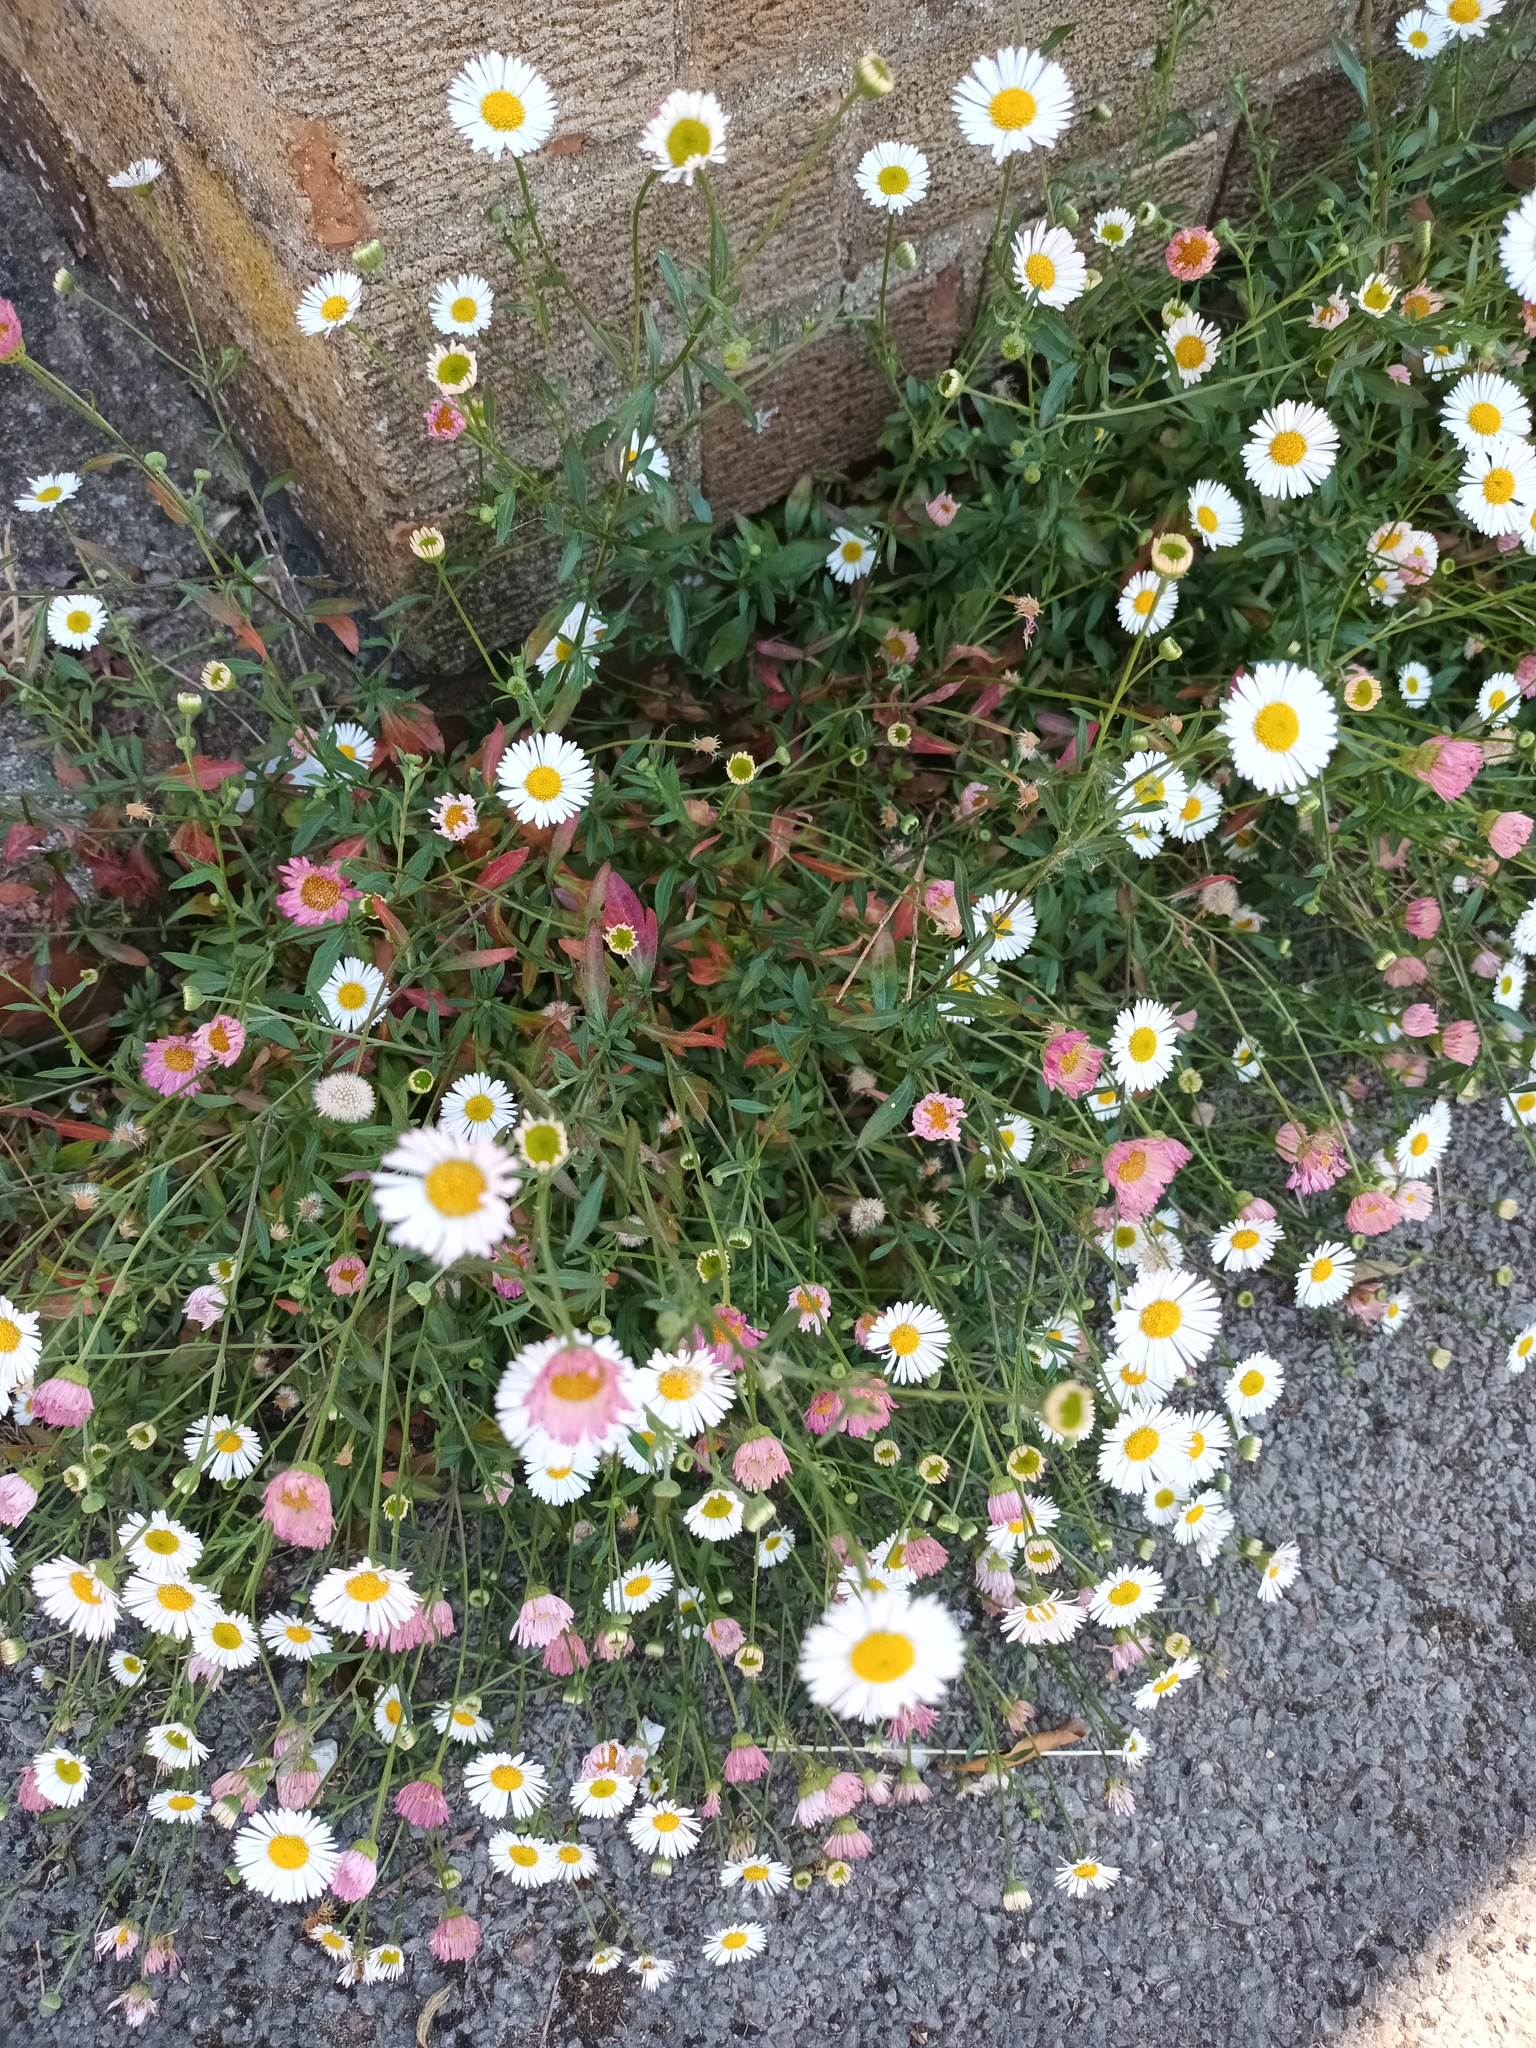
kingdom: Plantae
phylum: Tracheophyta
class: Magnoliopsida
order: Asterales
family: Asteraceae
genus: Erigeron
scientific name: Erigeron karvinskianus
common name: Mexican fleabane
